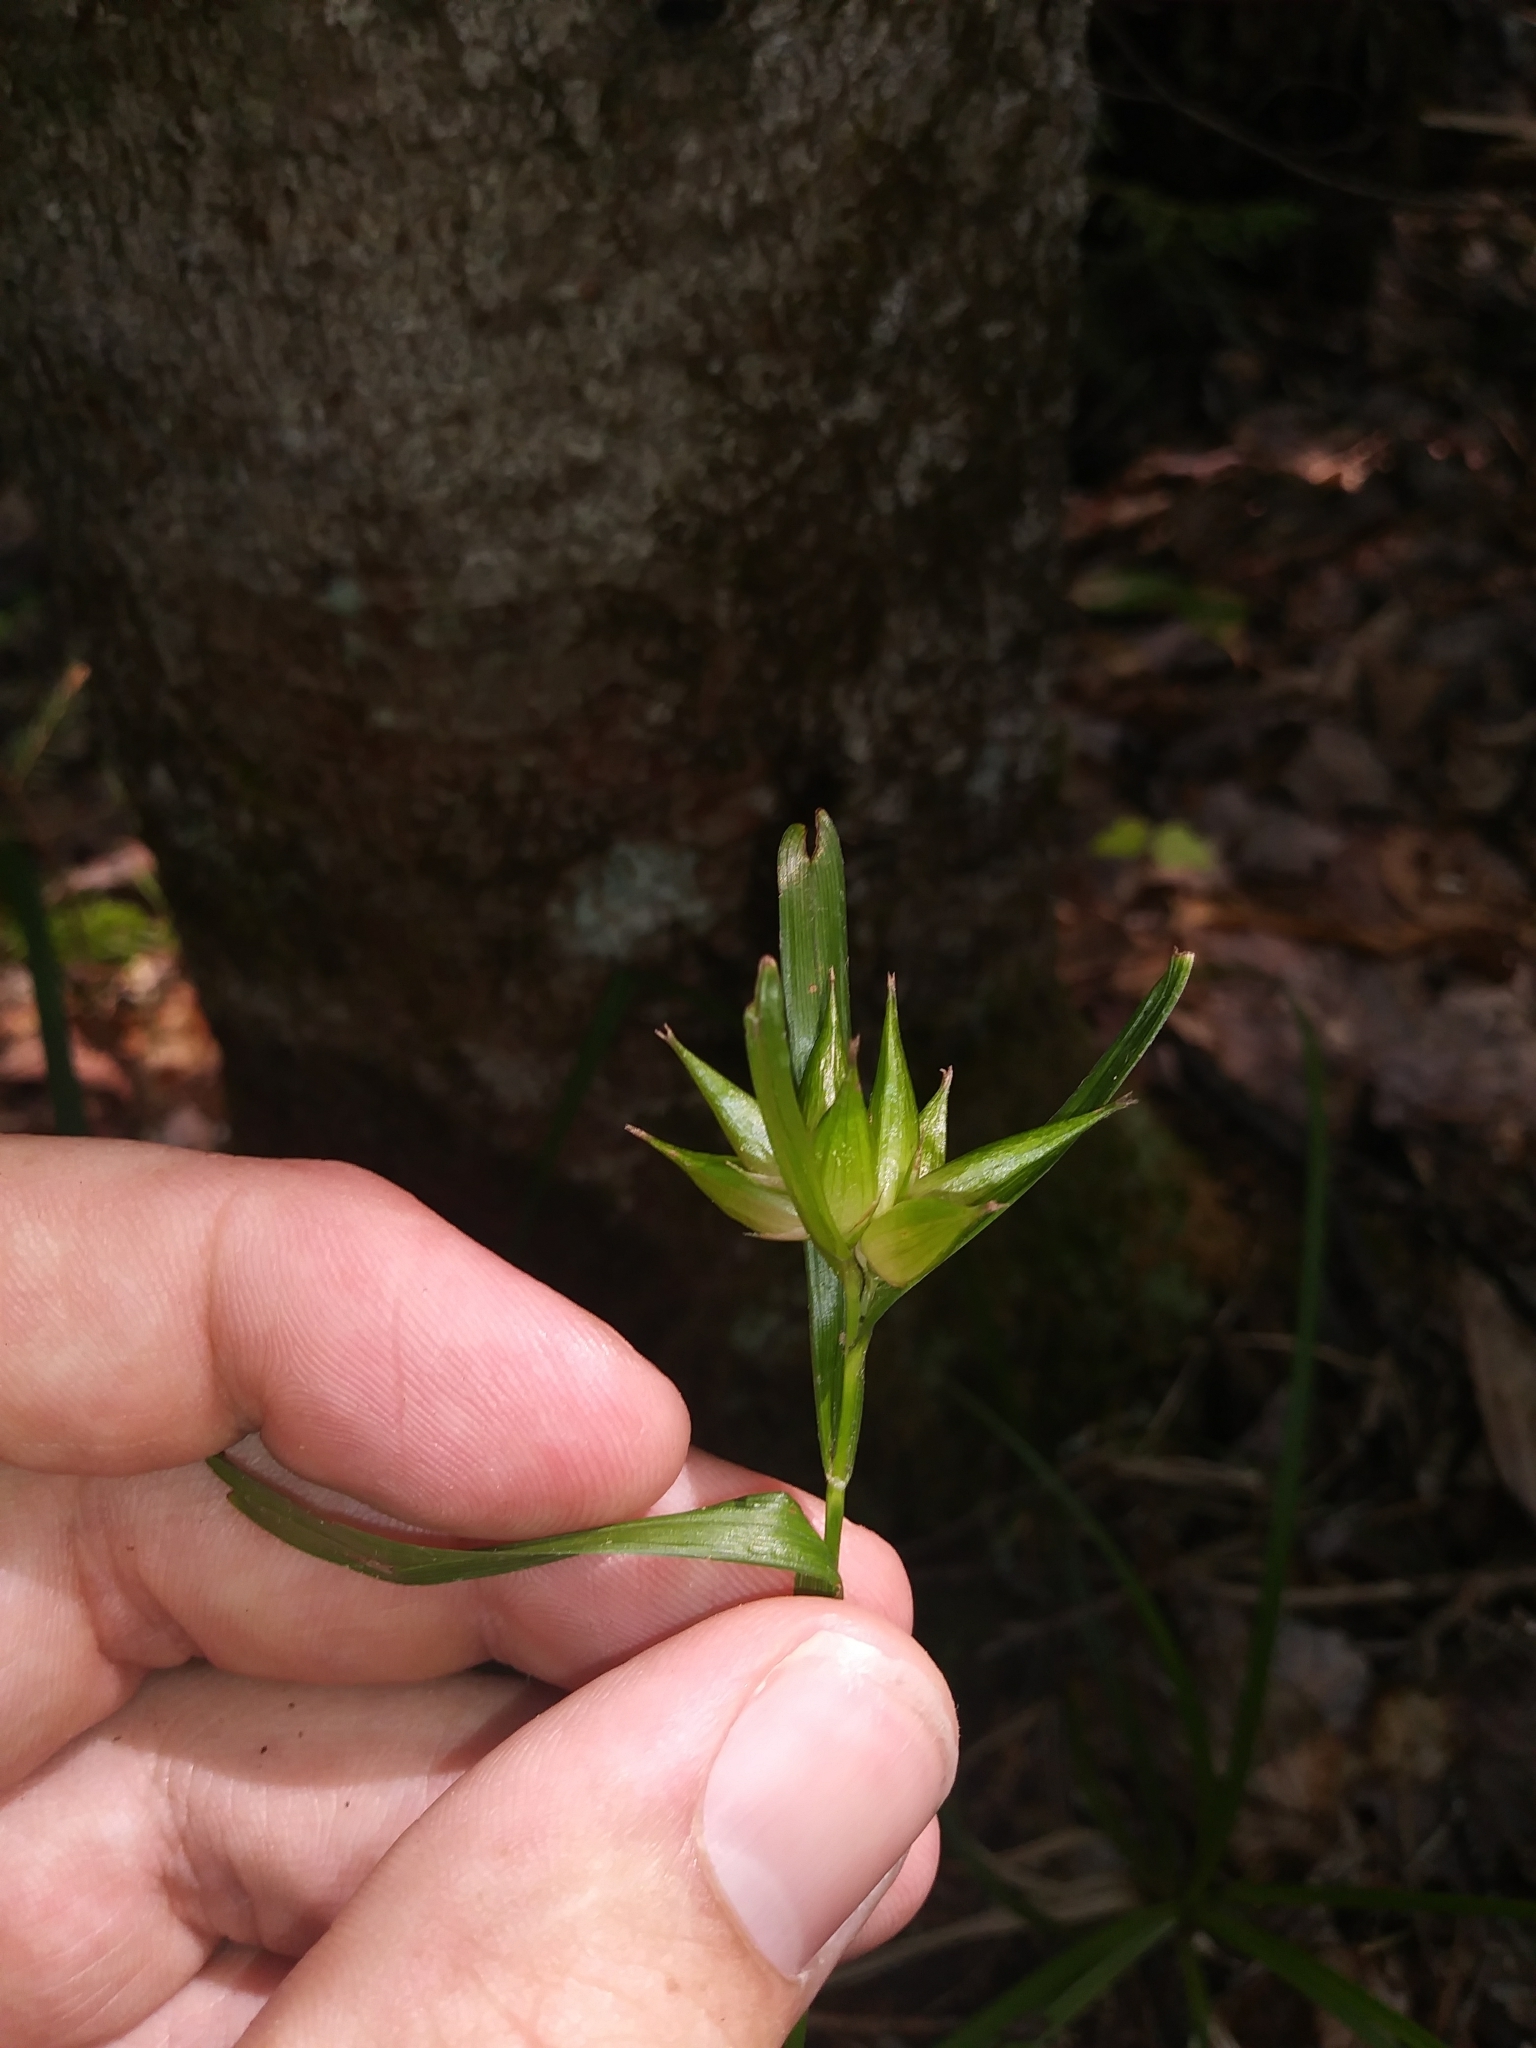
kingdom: Plantae
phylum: Tracheophyta
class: Liliopsida
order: Poales
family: Cyperaceae
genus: Carex
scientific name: Carex intumescens
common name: Greater bladder sedge
